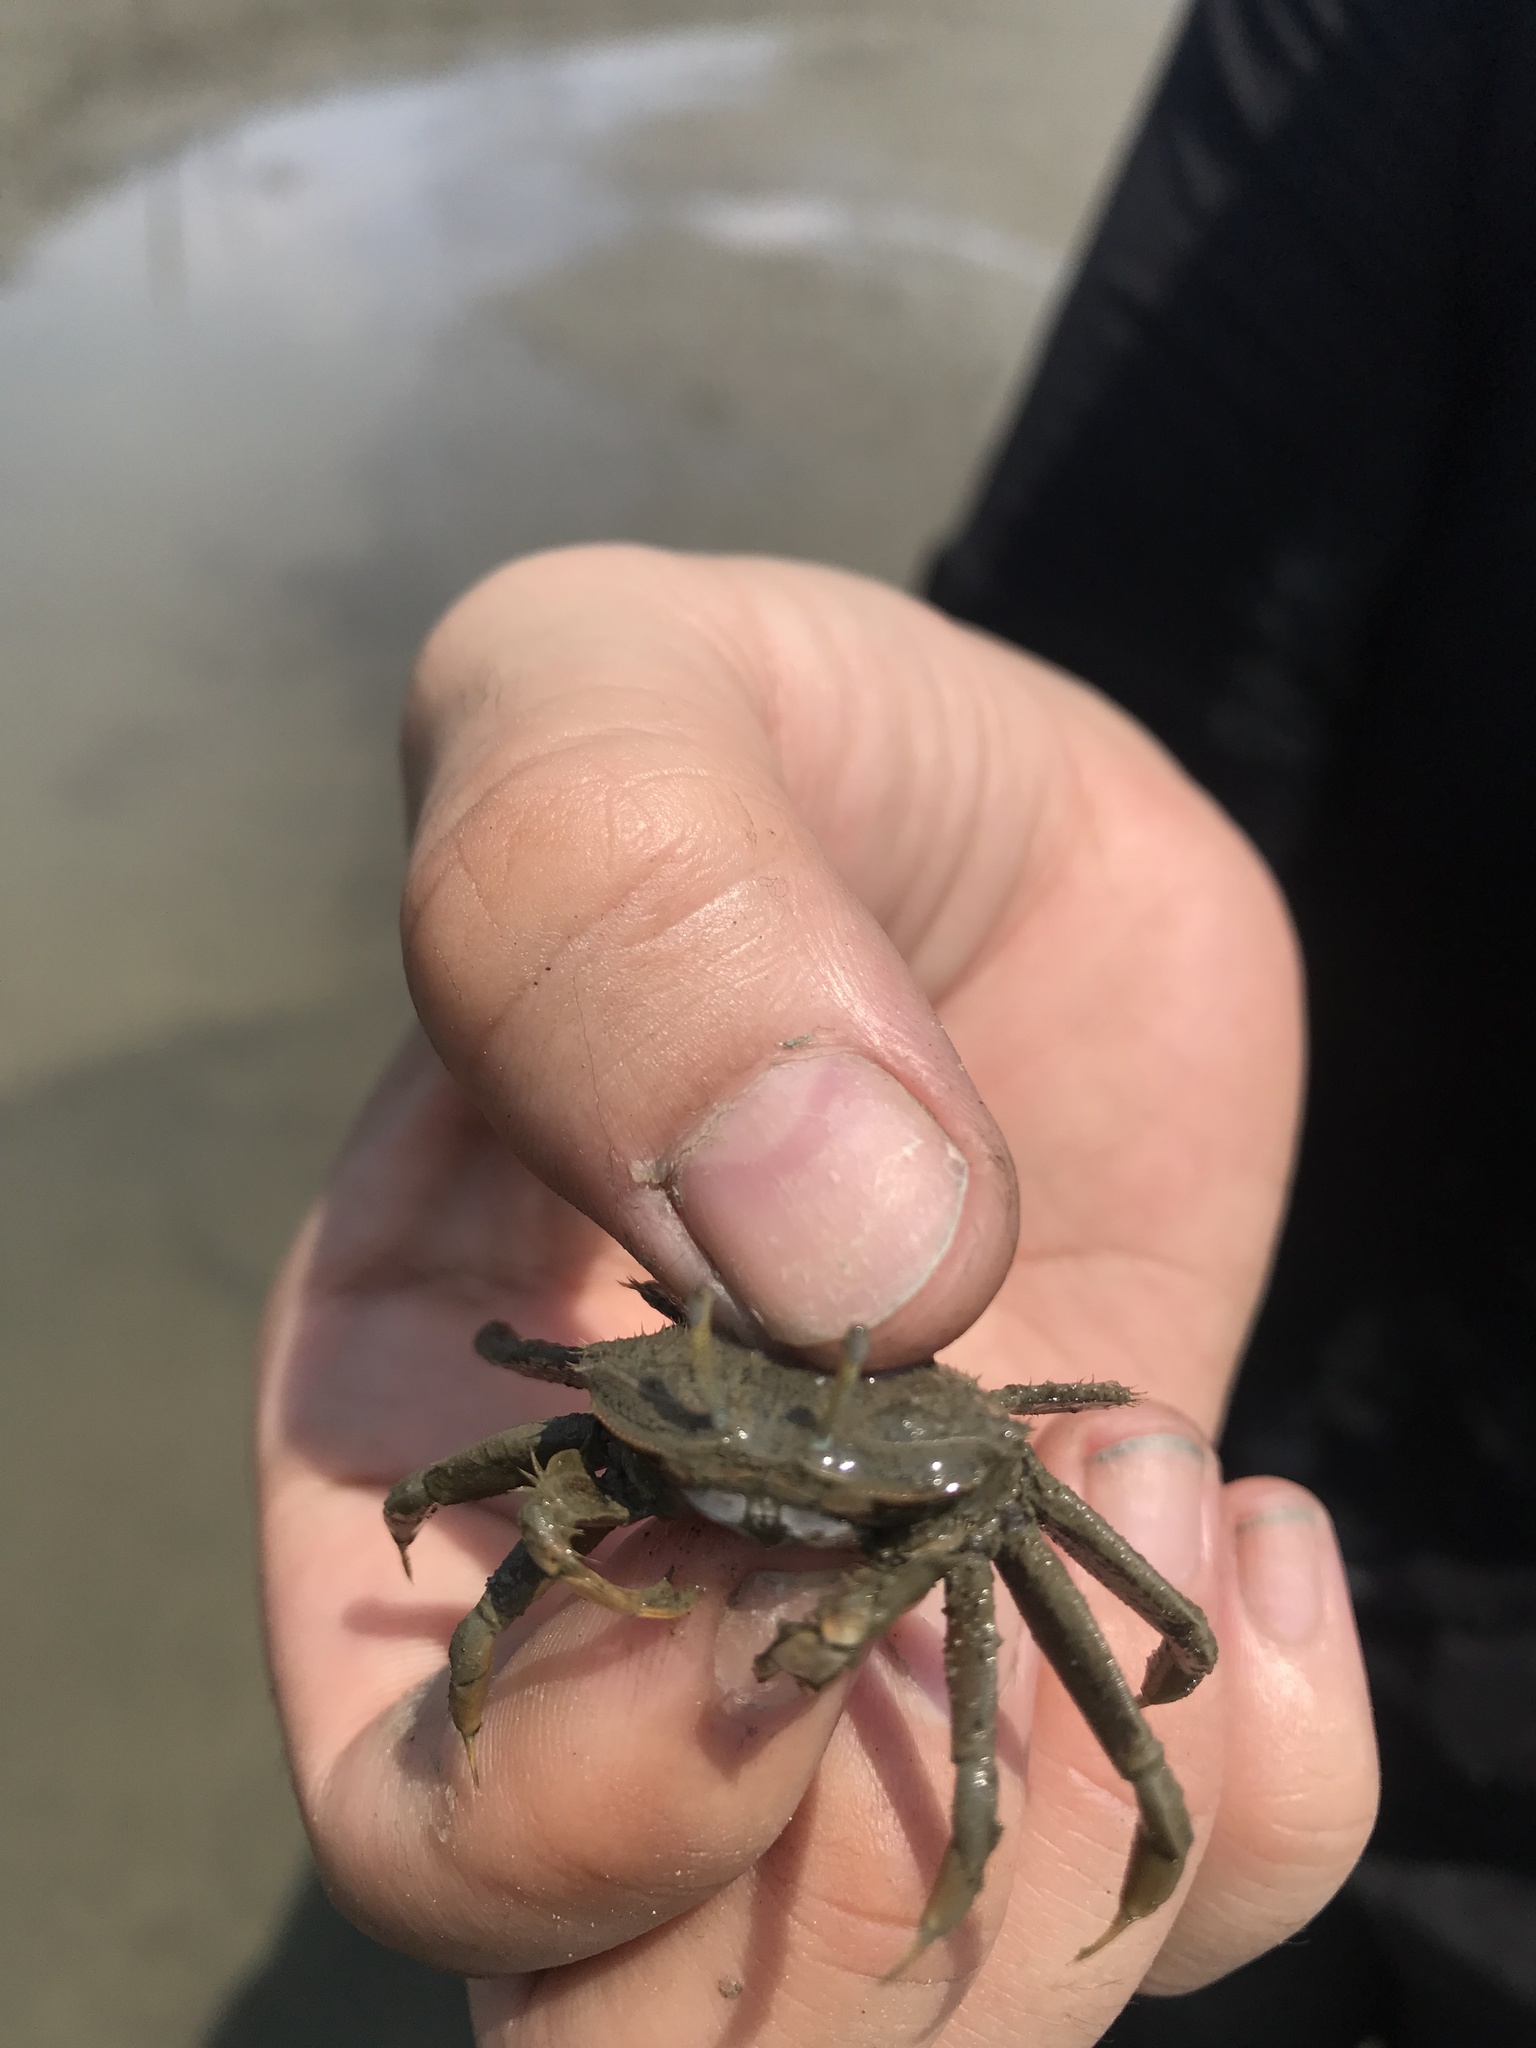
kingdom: Animalia
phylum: Arthropoda
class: Malacostraca
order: Decapoda
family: Macrophthalmidae
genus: Macrophthalmus
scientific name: Macrophthalmus banzai
